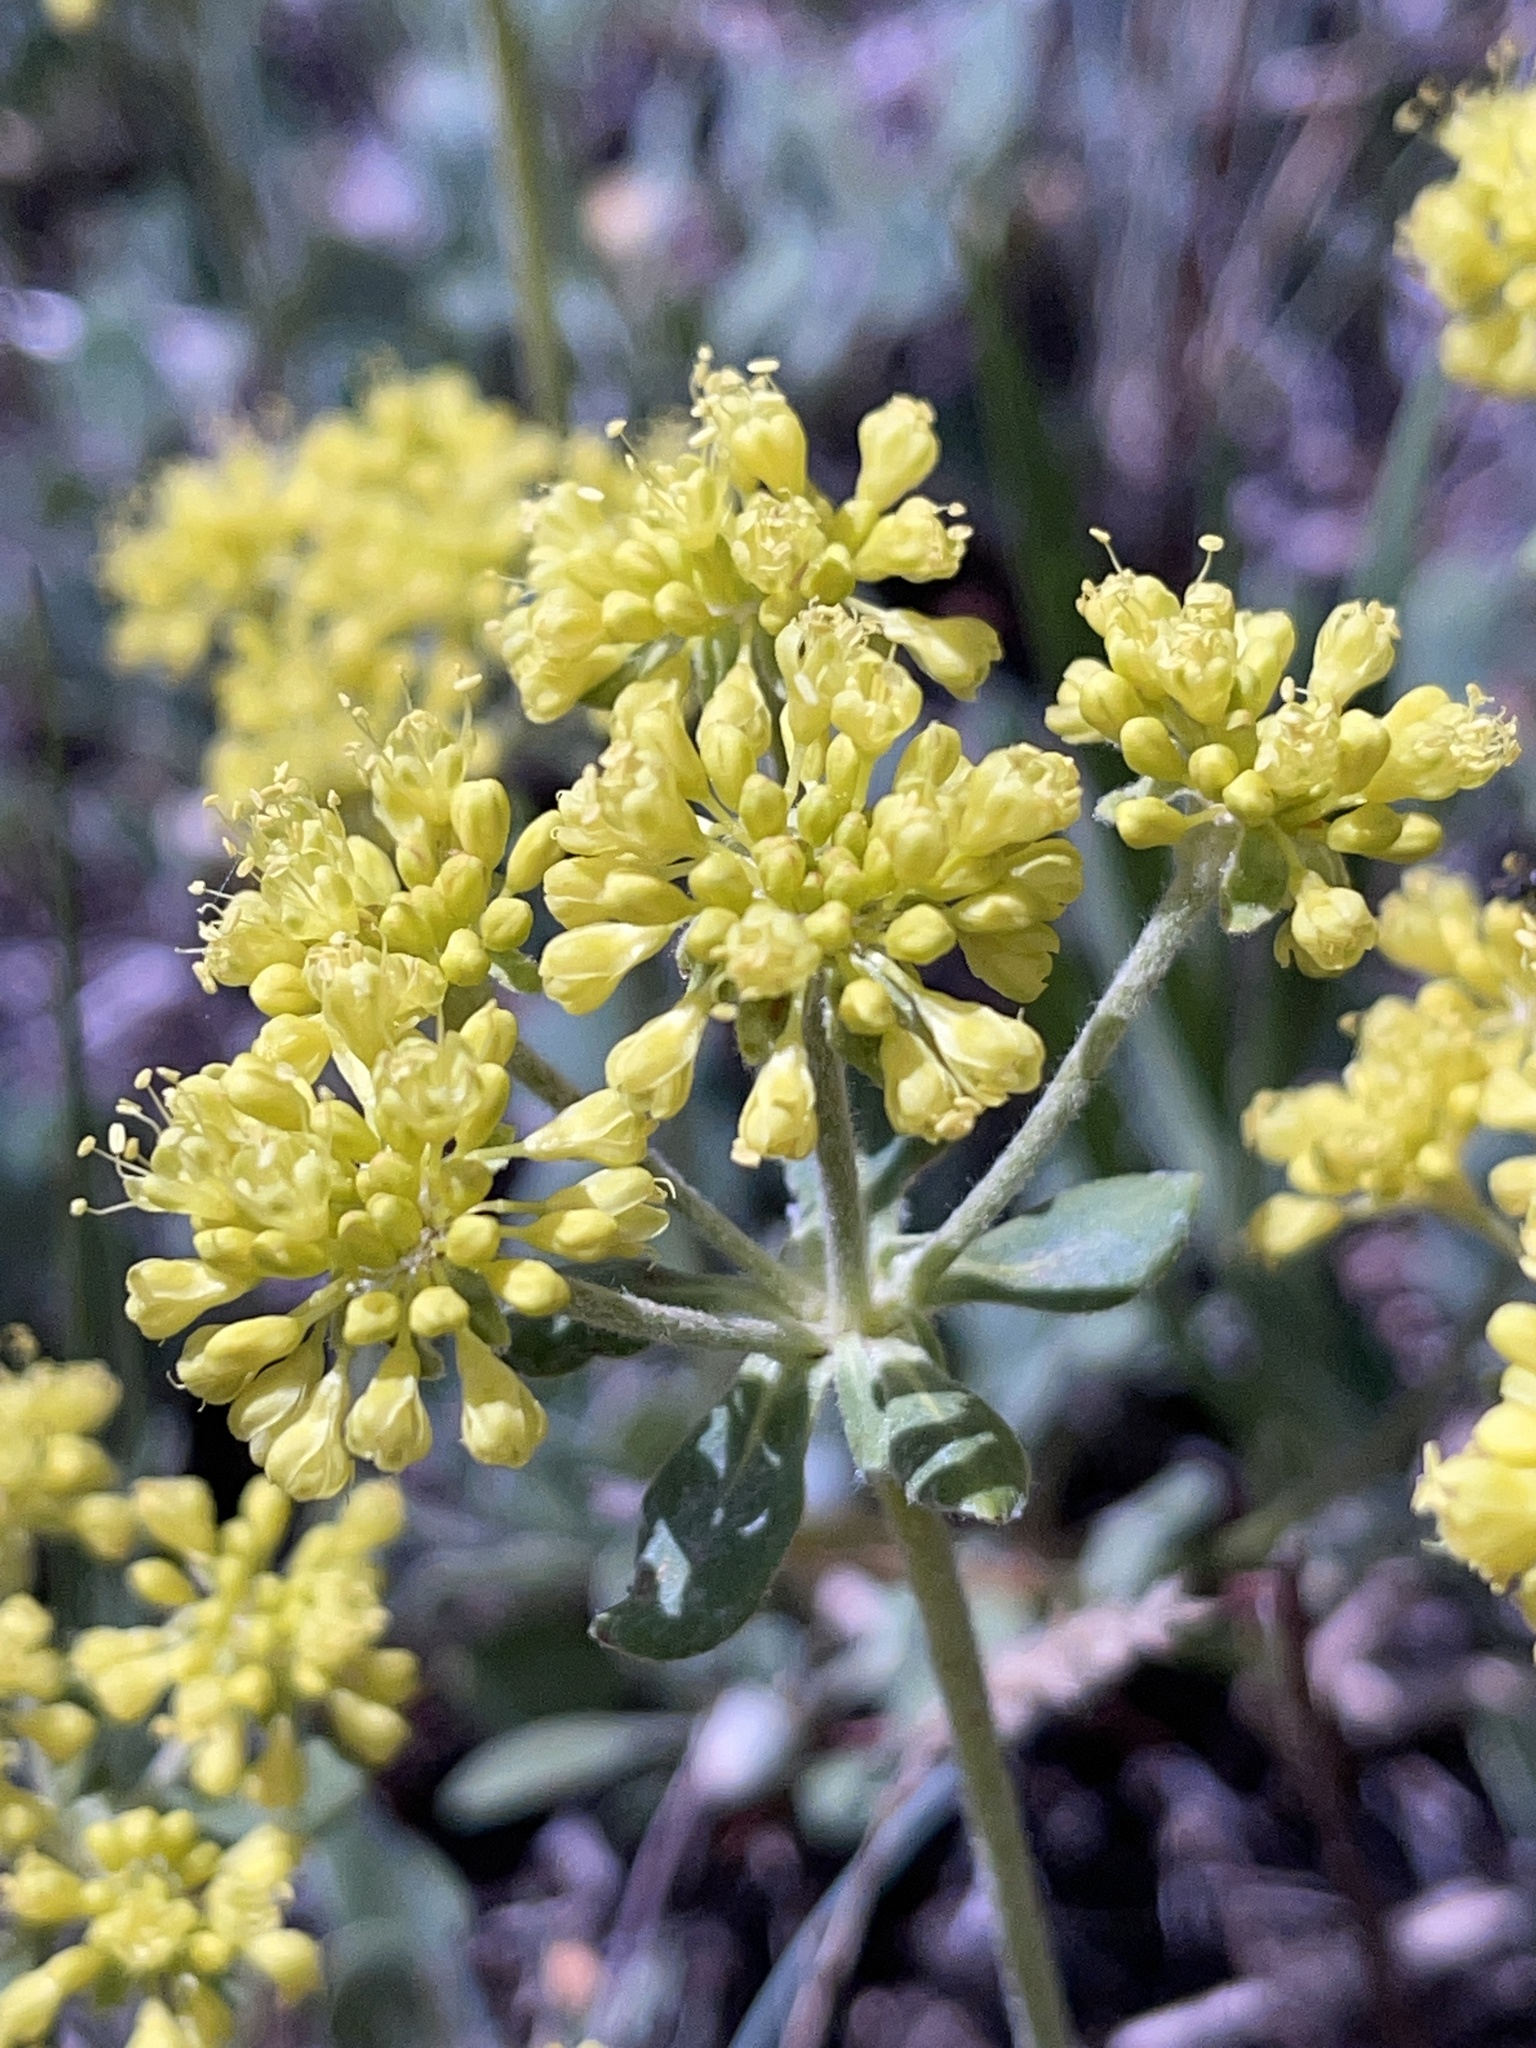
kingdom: Plantae
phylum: Tracheophyta
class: Magnoliopsida
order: Caryophyllales
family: Polygonaceae
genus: Eriogonum
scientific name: Eriogonum umbellatum
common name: Sulfur-buckwheat
